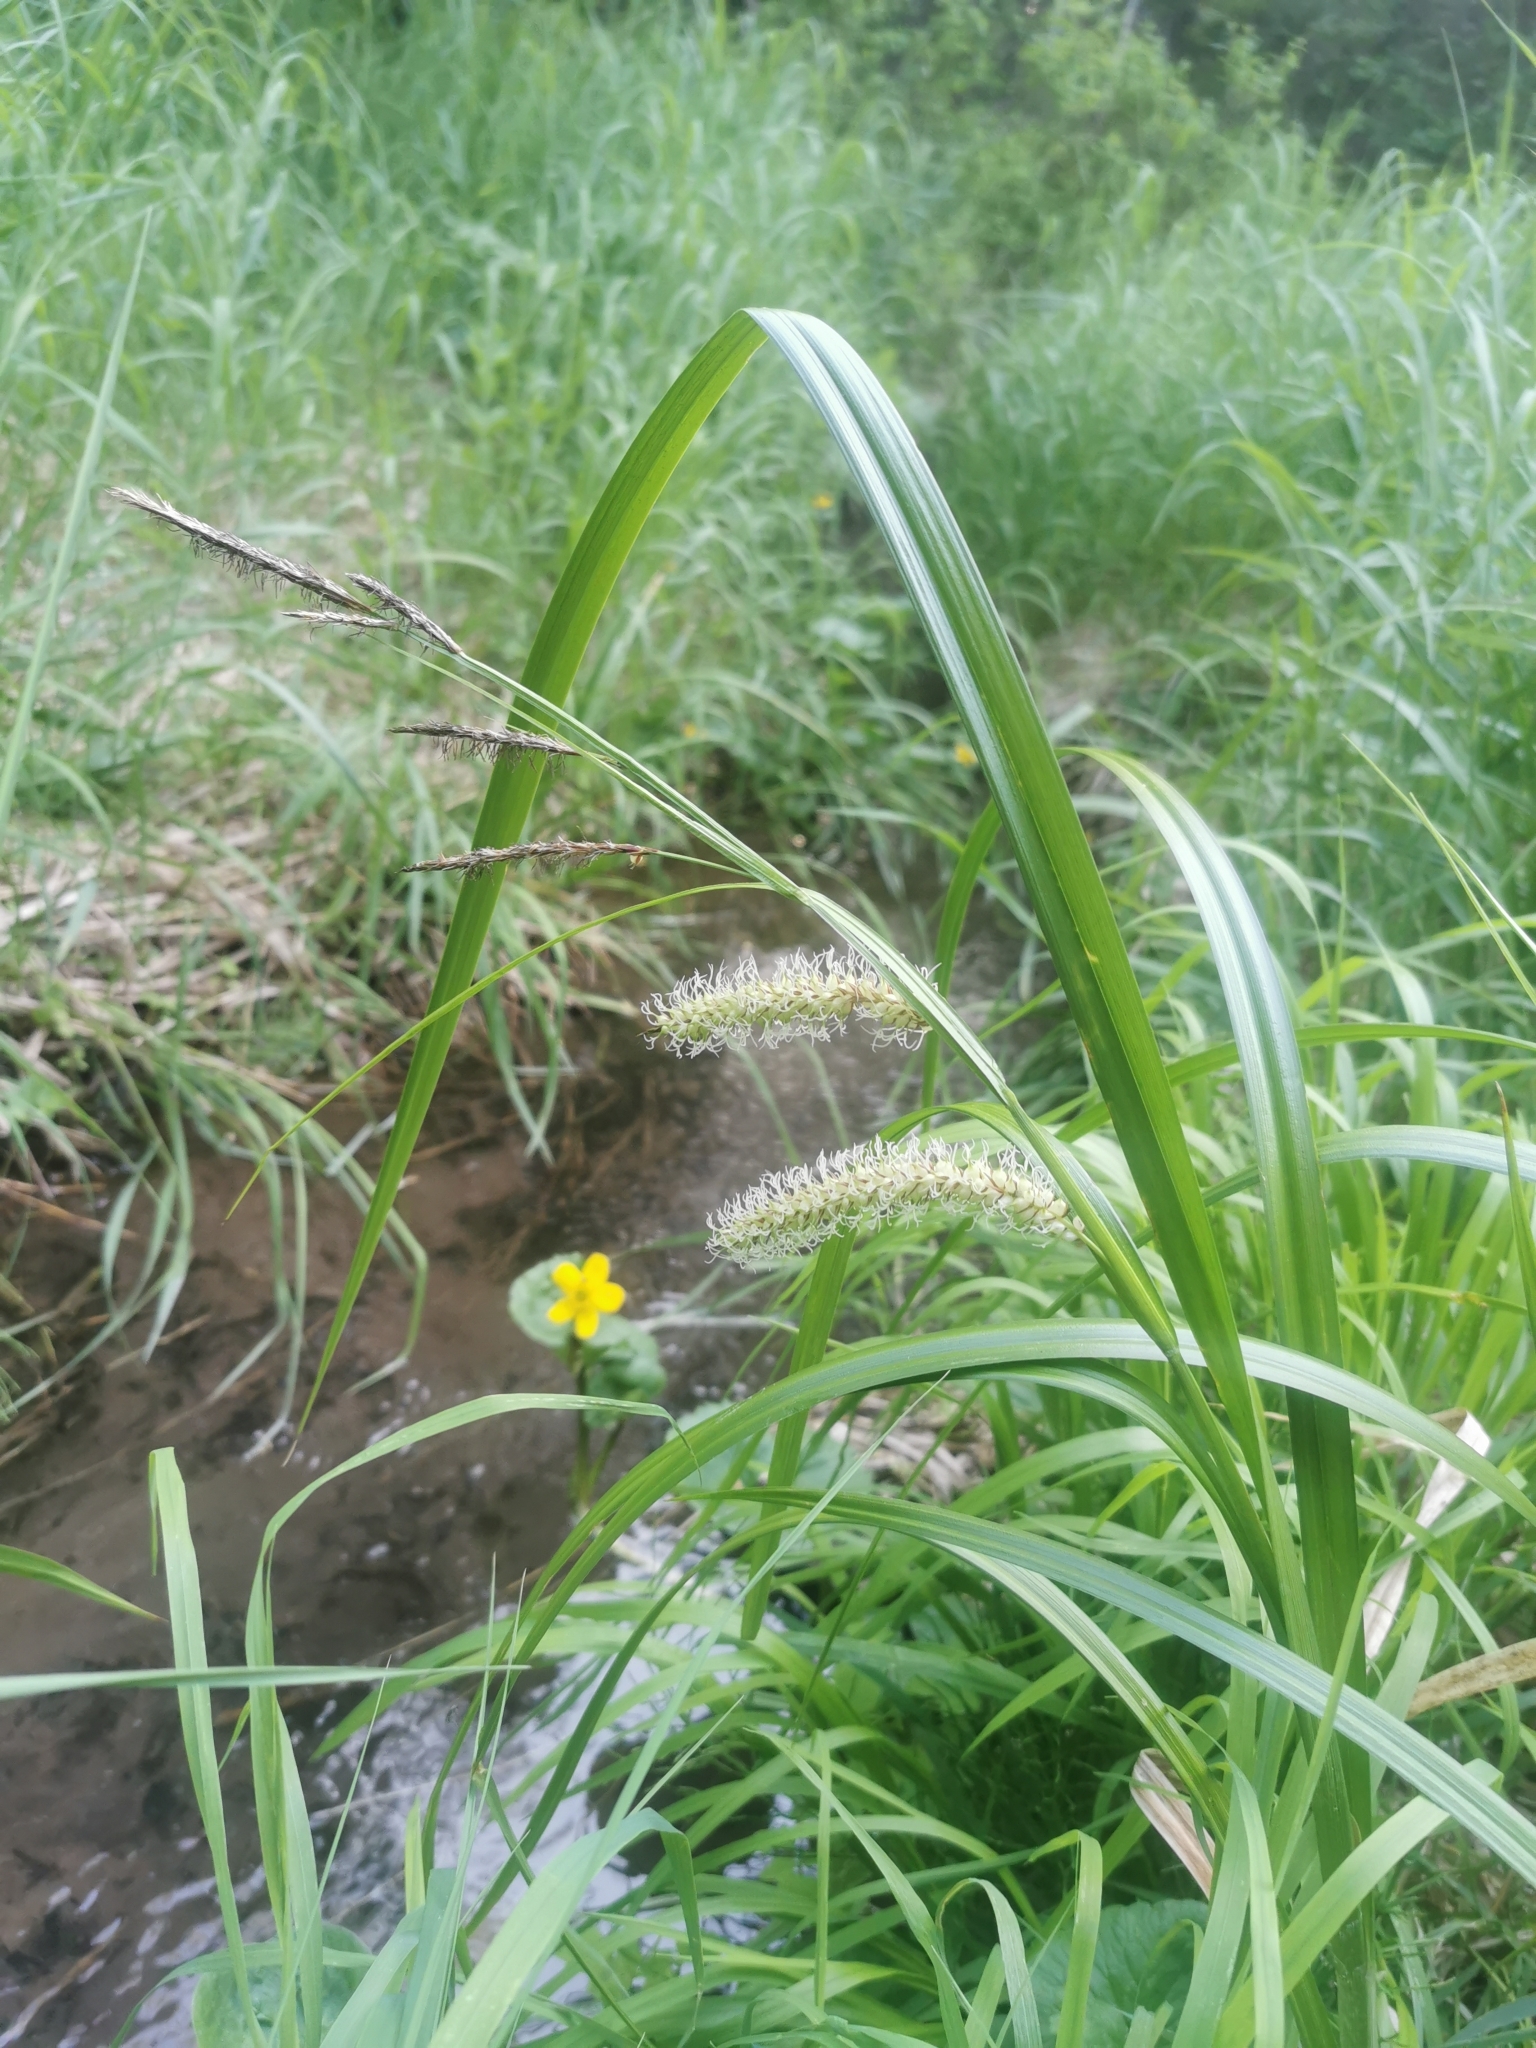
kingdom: Plantae
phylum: Tracheophyta
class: Liliopsida
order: Poales
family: Cyperaceae
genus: Carex
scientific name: Carex utriculata
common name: Beaked sedge
